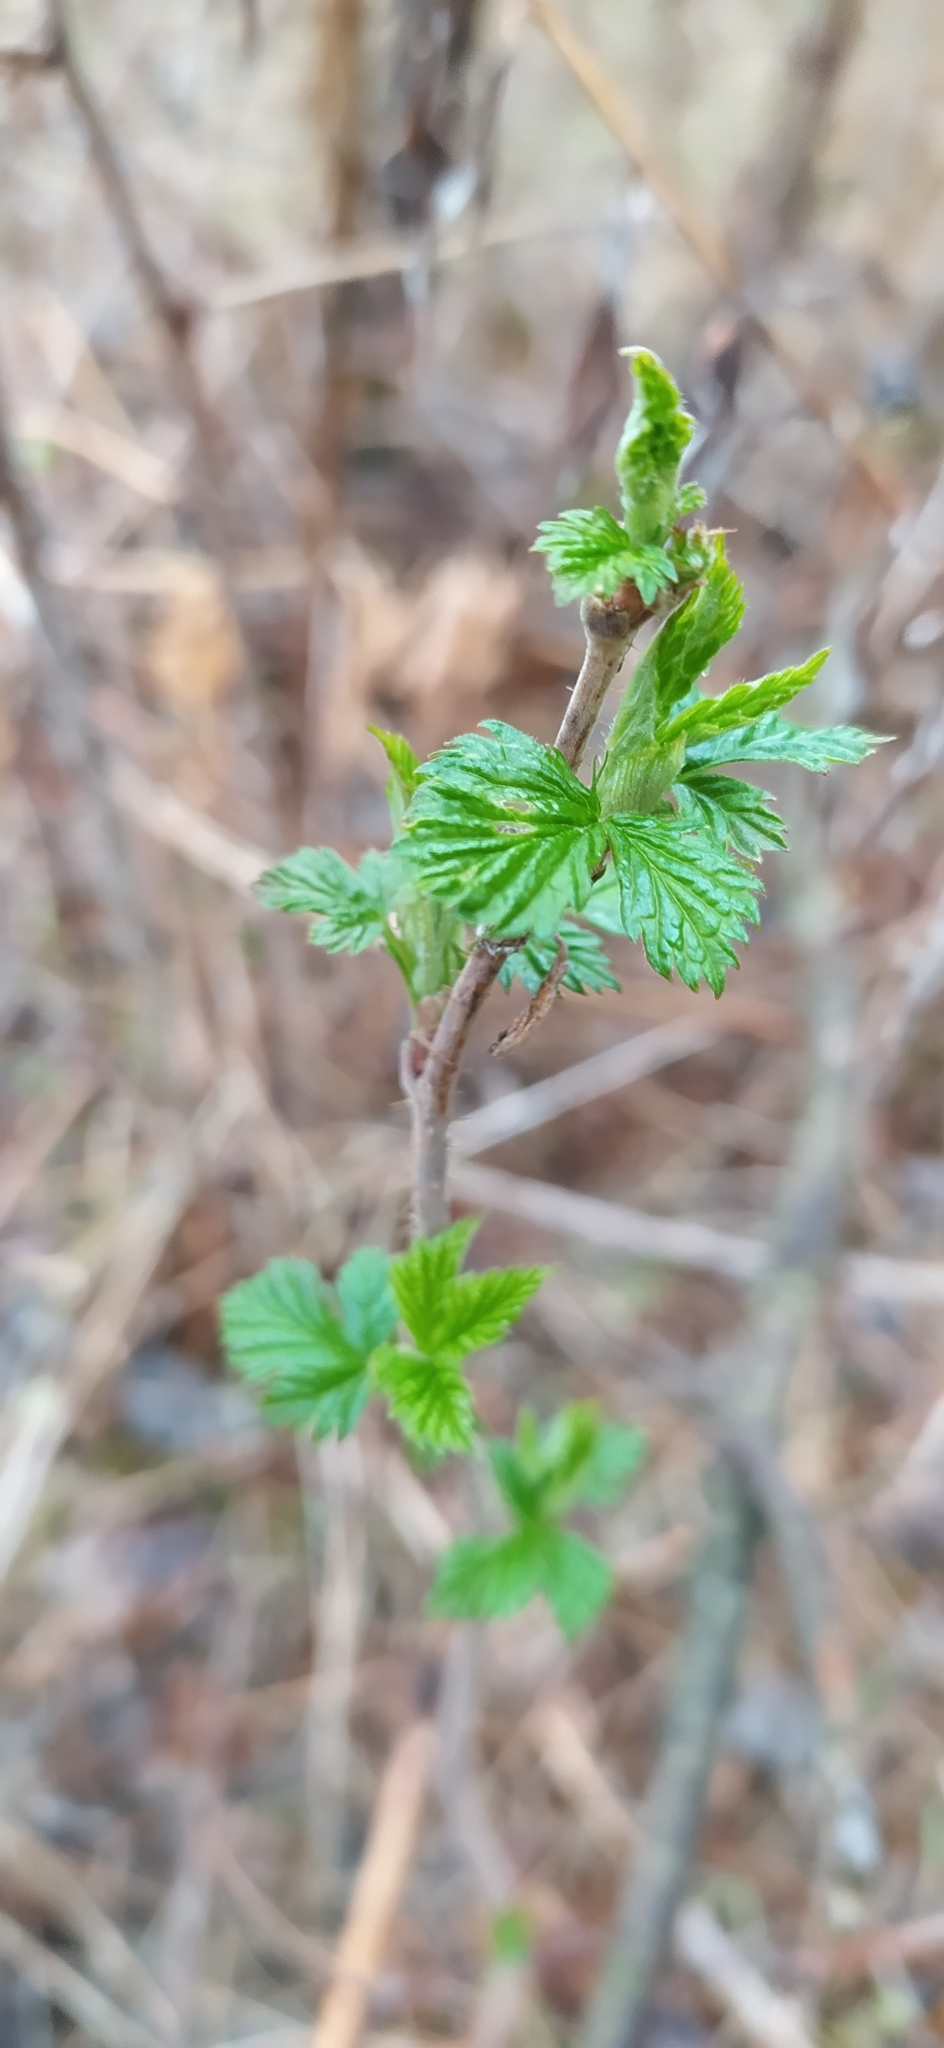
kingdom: Plantae
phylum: Tracheophyta
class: Magnoliopsida
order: Rosales
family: Rosaceae
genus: Rubus
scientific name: Rubus idaeus
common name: Raspberry
